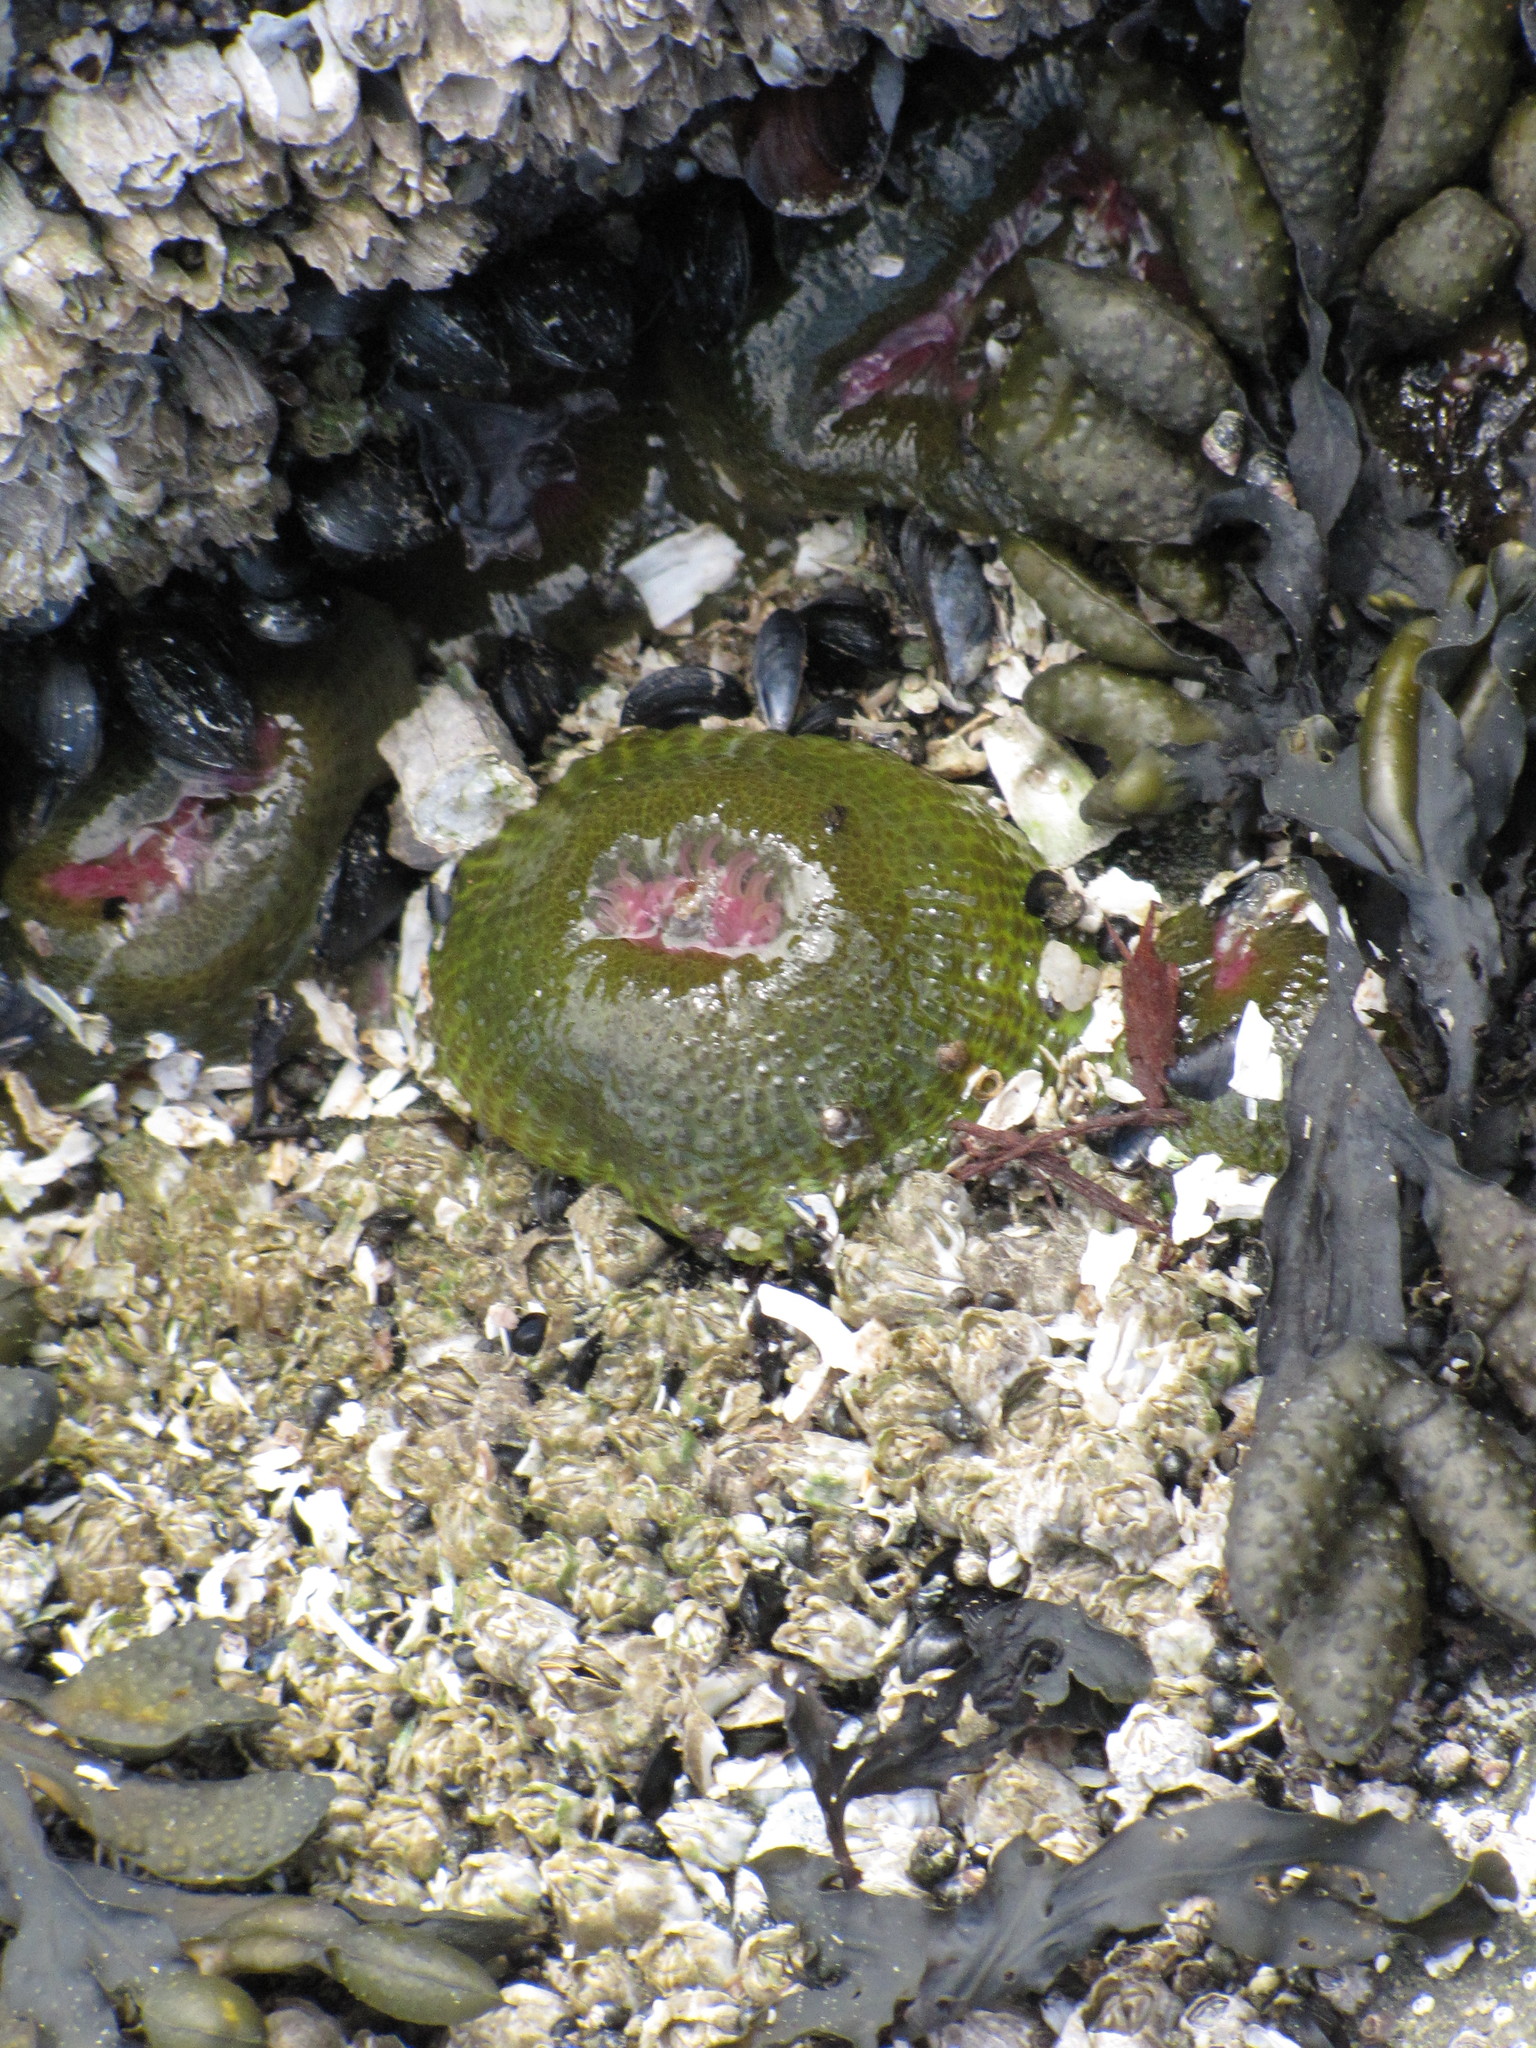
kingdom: Animalia
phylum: Cnidaria
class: Anthozoa
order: Actiniaria
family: Actiniidae
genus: Anthopleura
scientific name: Anthopleura elegantissima
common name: Clonal anemone
